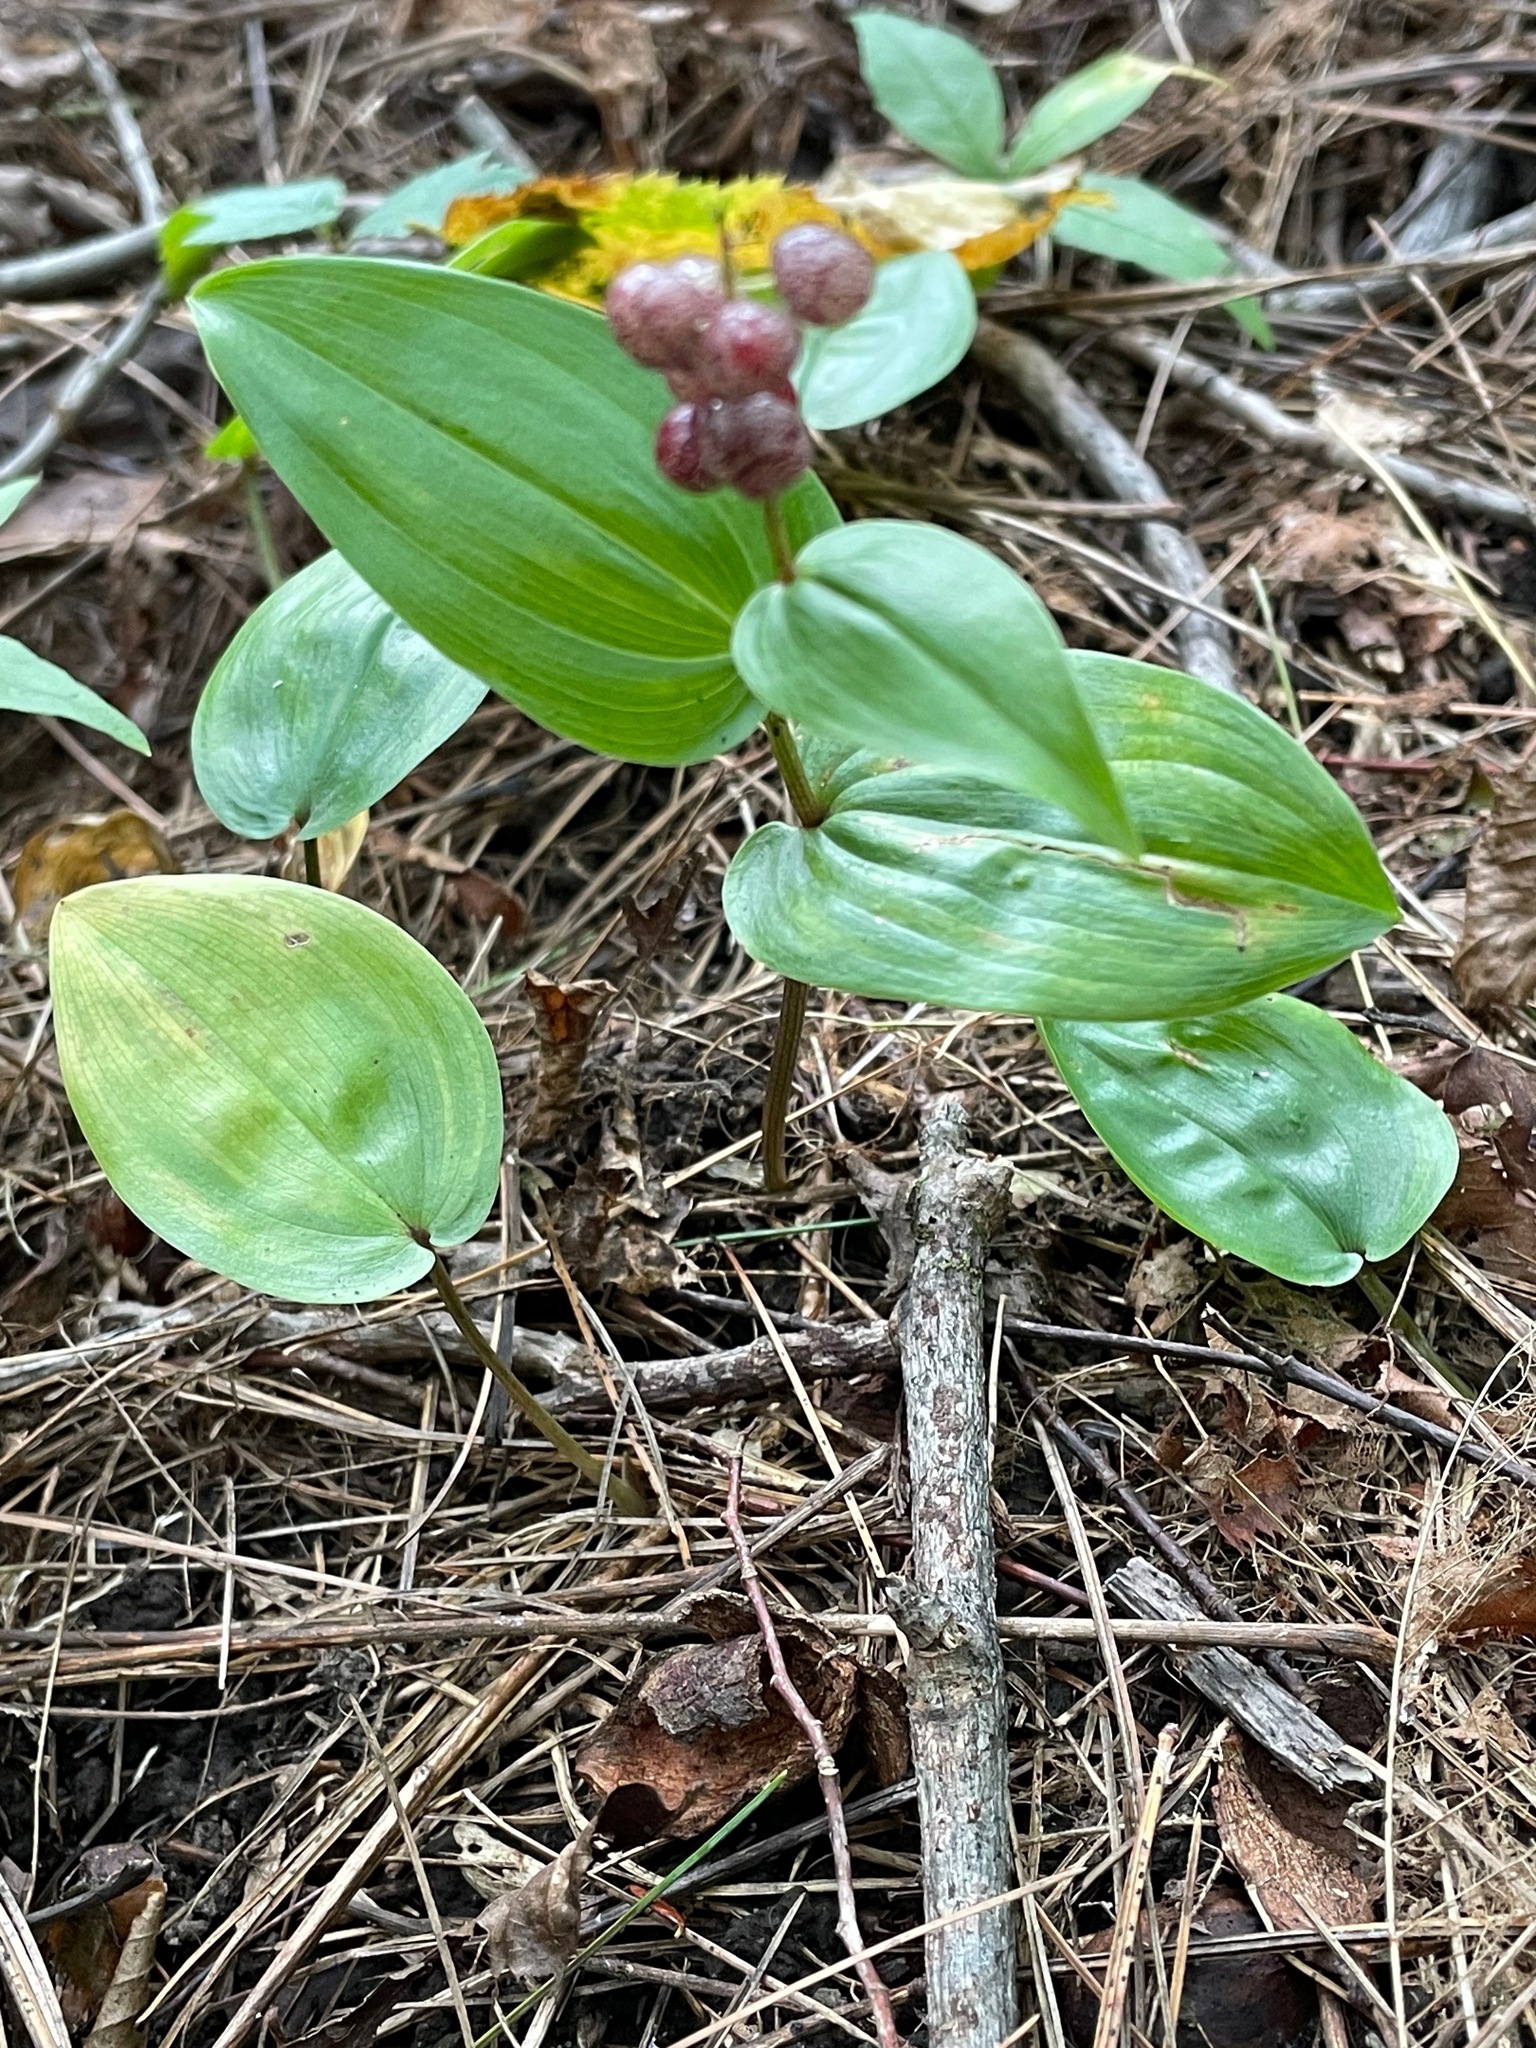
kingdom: Plantae
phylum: Tracheophyta
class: Liliopsida
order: Asparagales
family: Asparagaceae
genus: Maianthemum
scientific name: Maianthemum canadense
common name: False lily-of-the-valley
